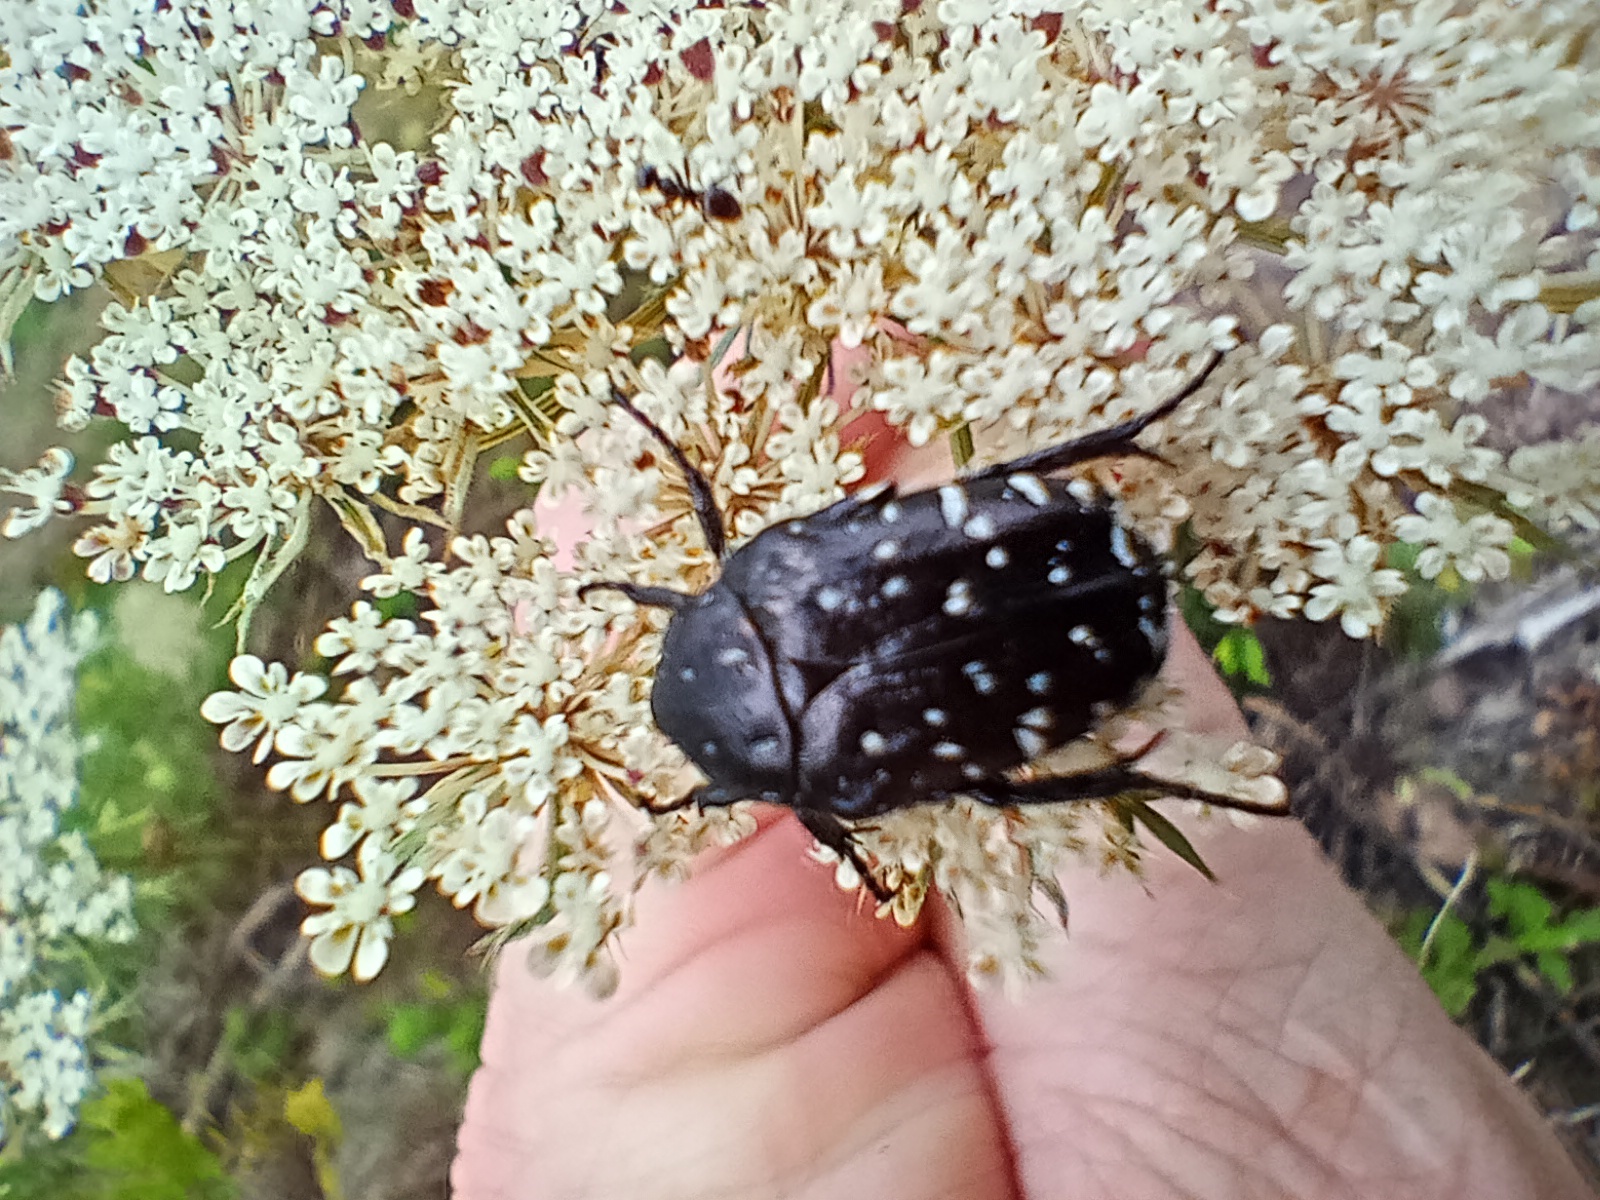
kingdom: Animalia
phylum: Arthropoda
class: Insecta
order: Coleoptera
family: Scarabaeidae
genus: Oxythyrea
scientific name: Oxythyrea funesta
